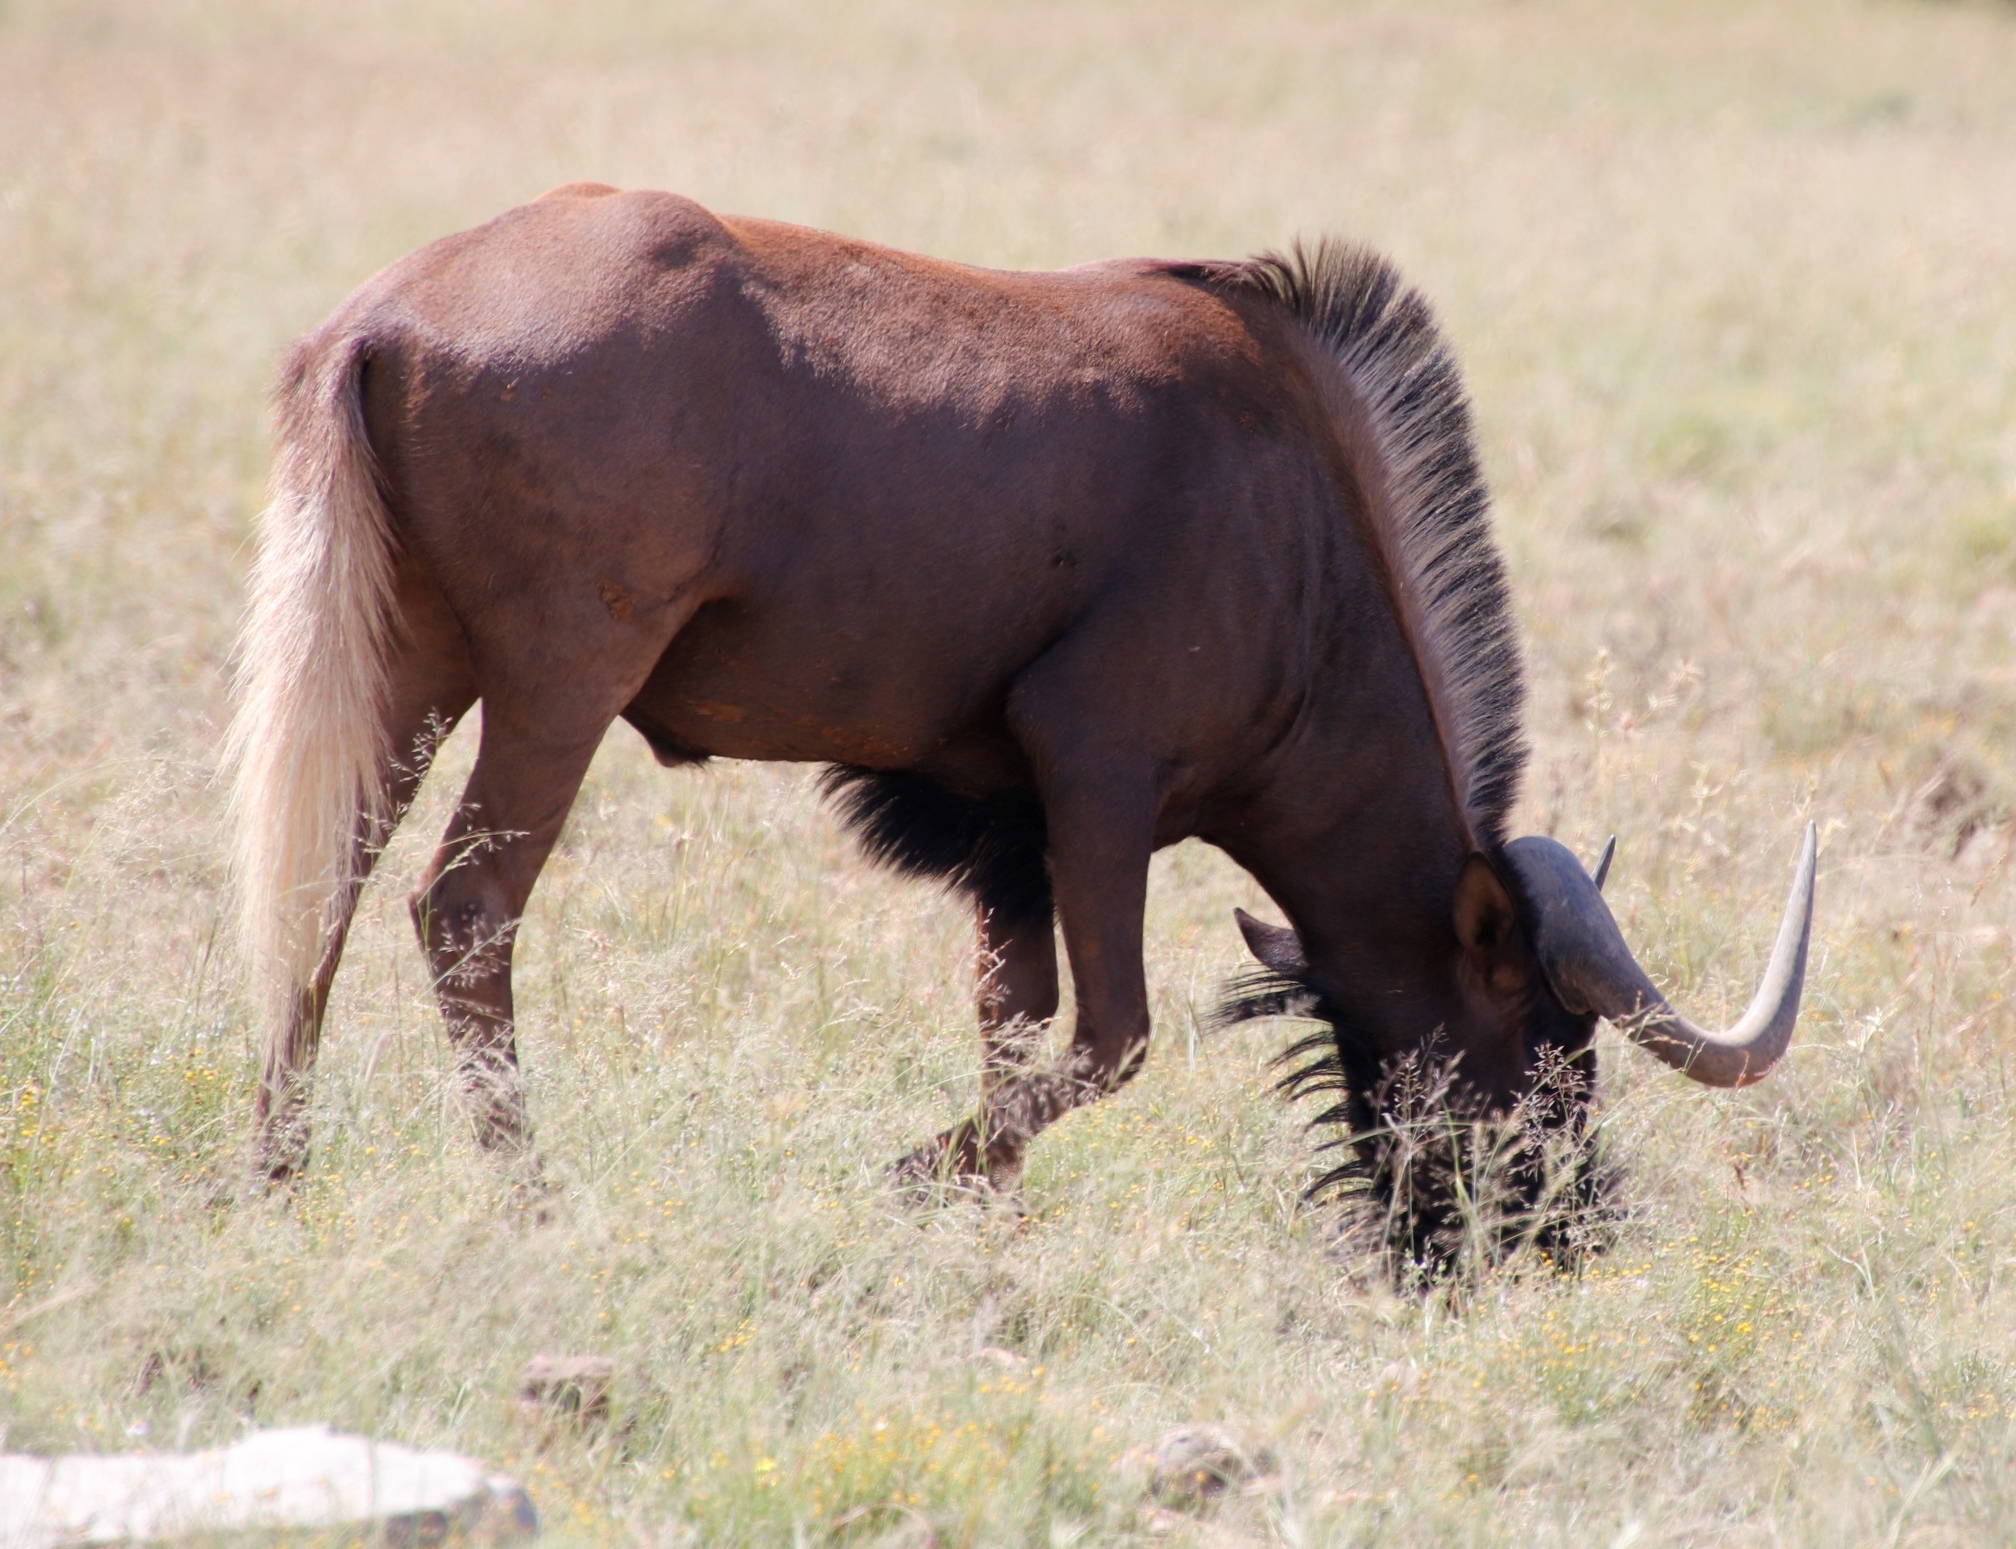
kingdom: Animalia
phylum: Chordata
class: Mammalia
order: Artiodactyla
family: Bovidae
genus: Connochaetes
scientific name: Connochaetes gnou
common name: Black wildebeest
